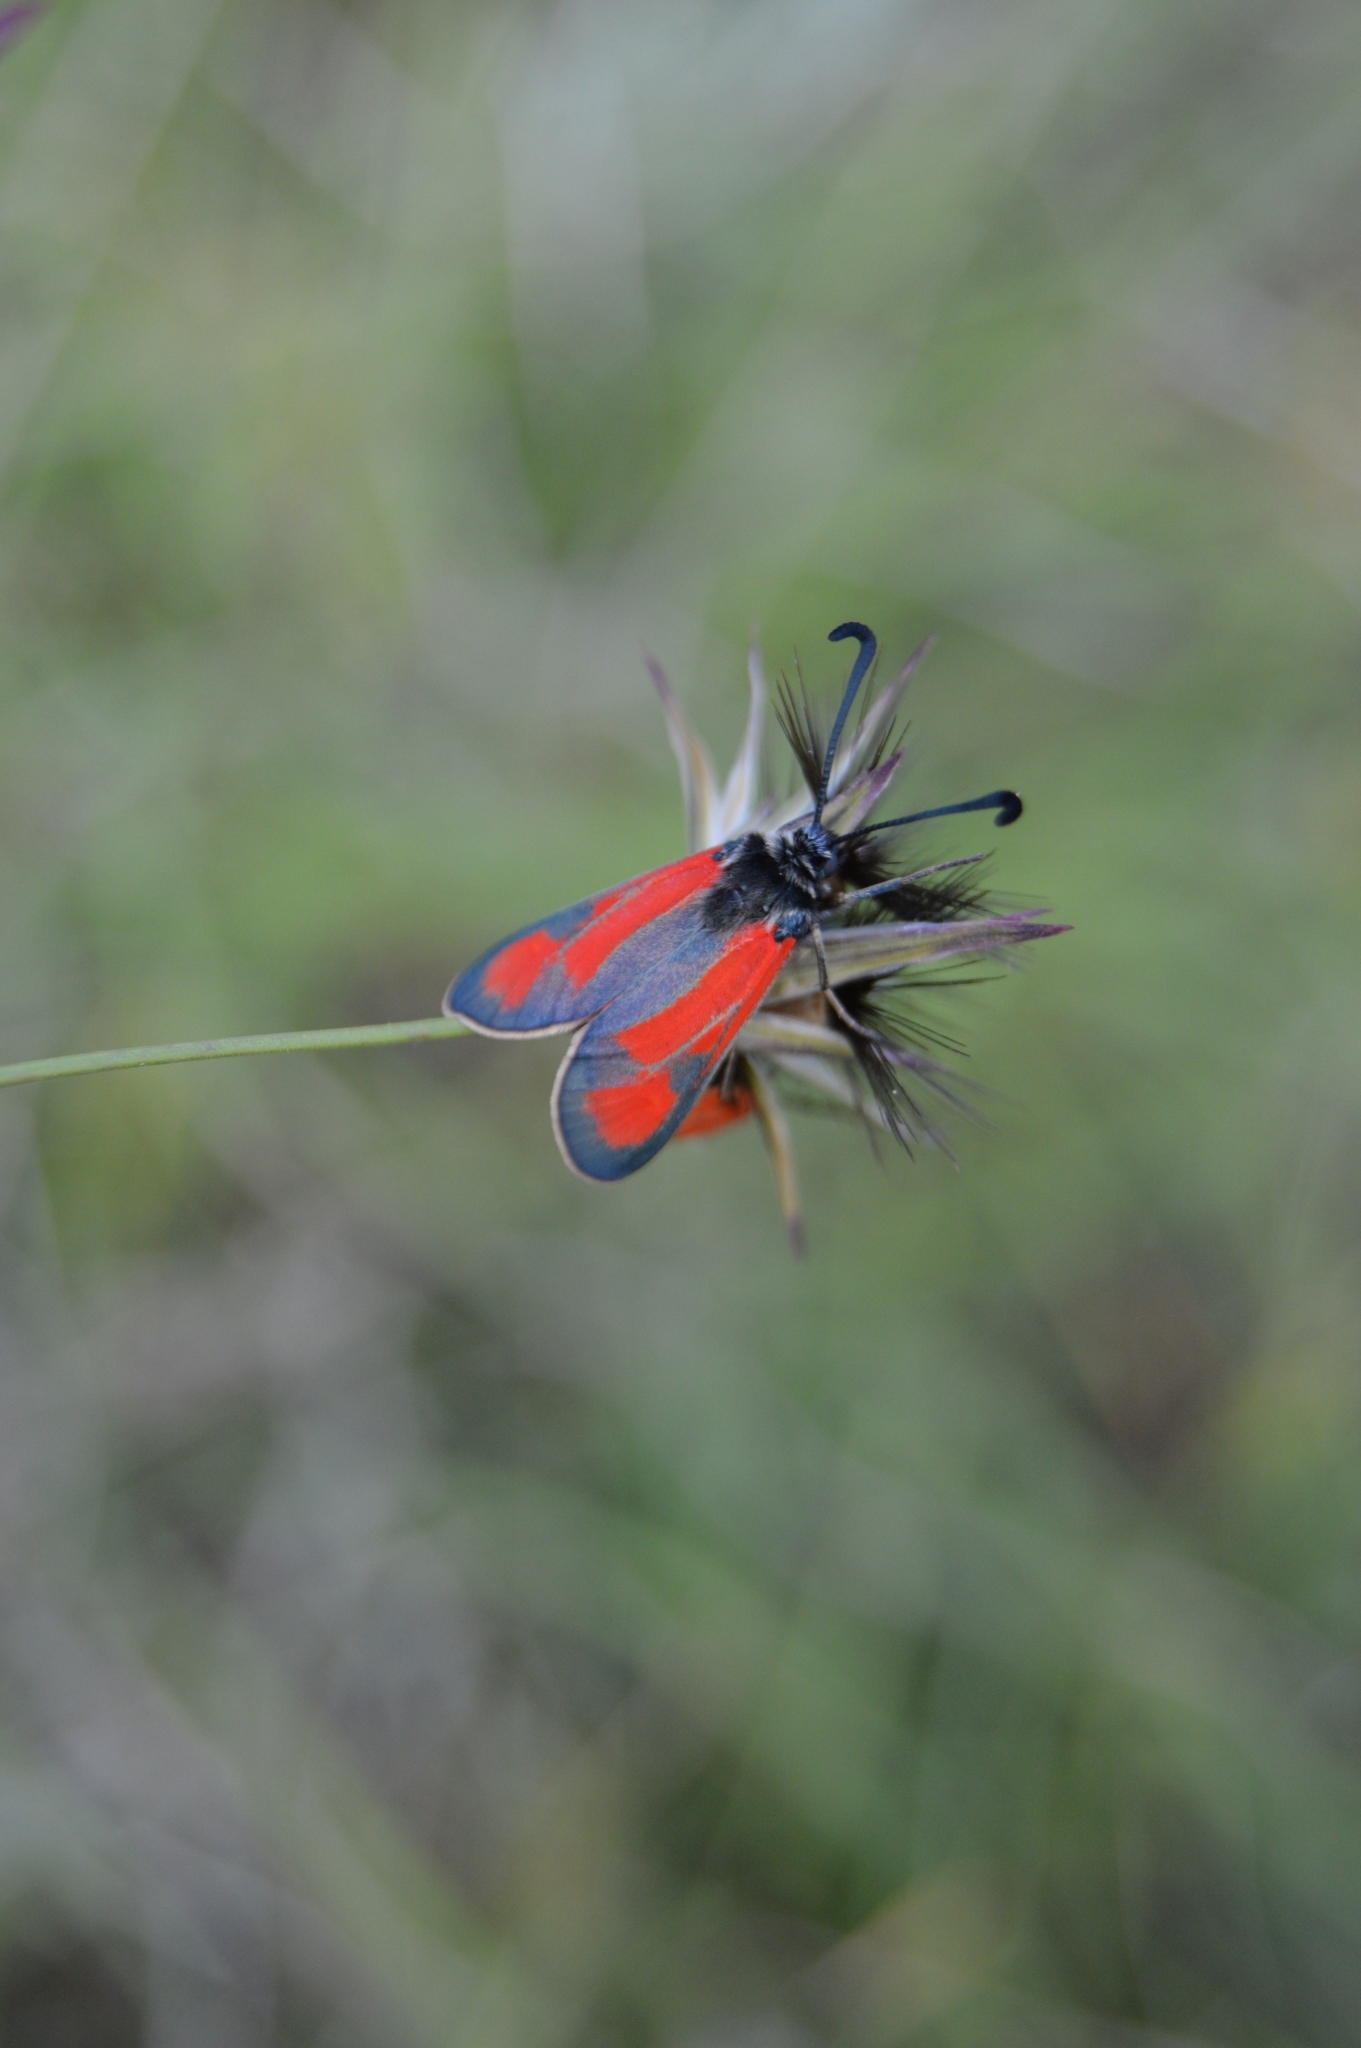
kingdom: Animalia
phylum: Arthropoda
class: Insecta
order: Lepidoptera
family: Zygaenidae
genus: Zygaena
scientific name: Zygaena punctum
